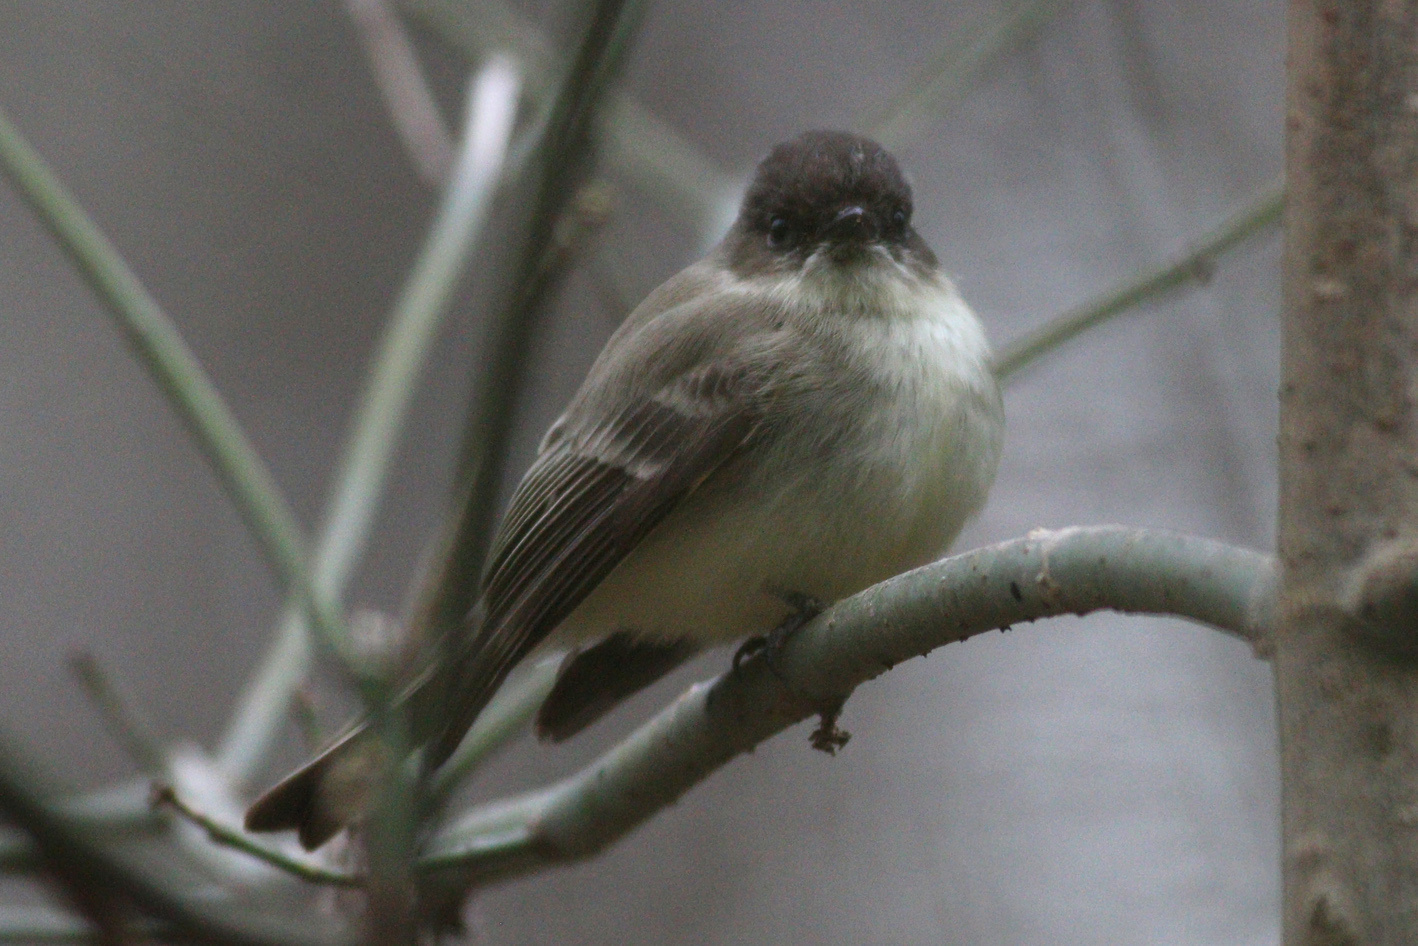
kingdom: Animalia
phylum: Chordata
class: Aves
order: Passeriformes
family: Tyrannidae
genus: Sayornis
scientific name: Sayornis phoebe
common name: Eastern phoebe
